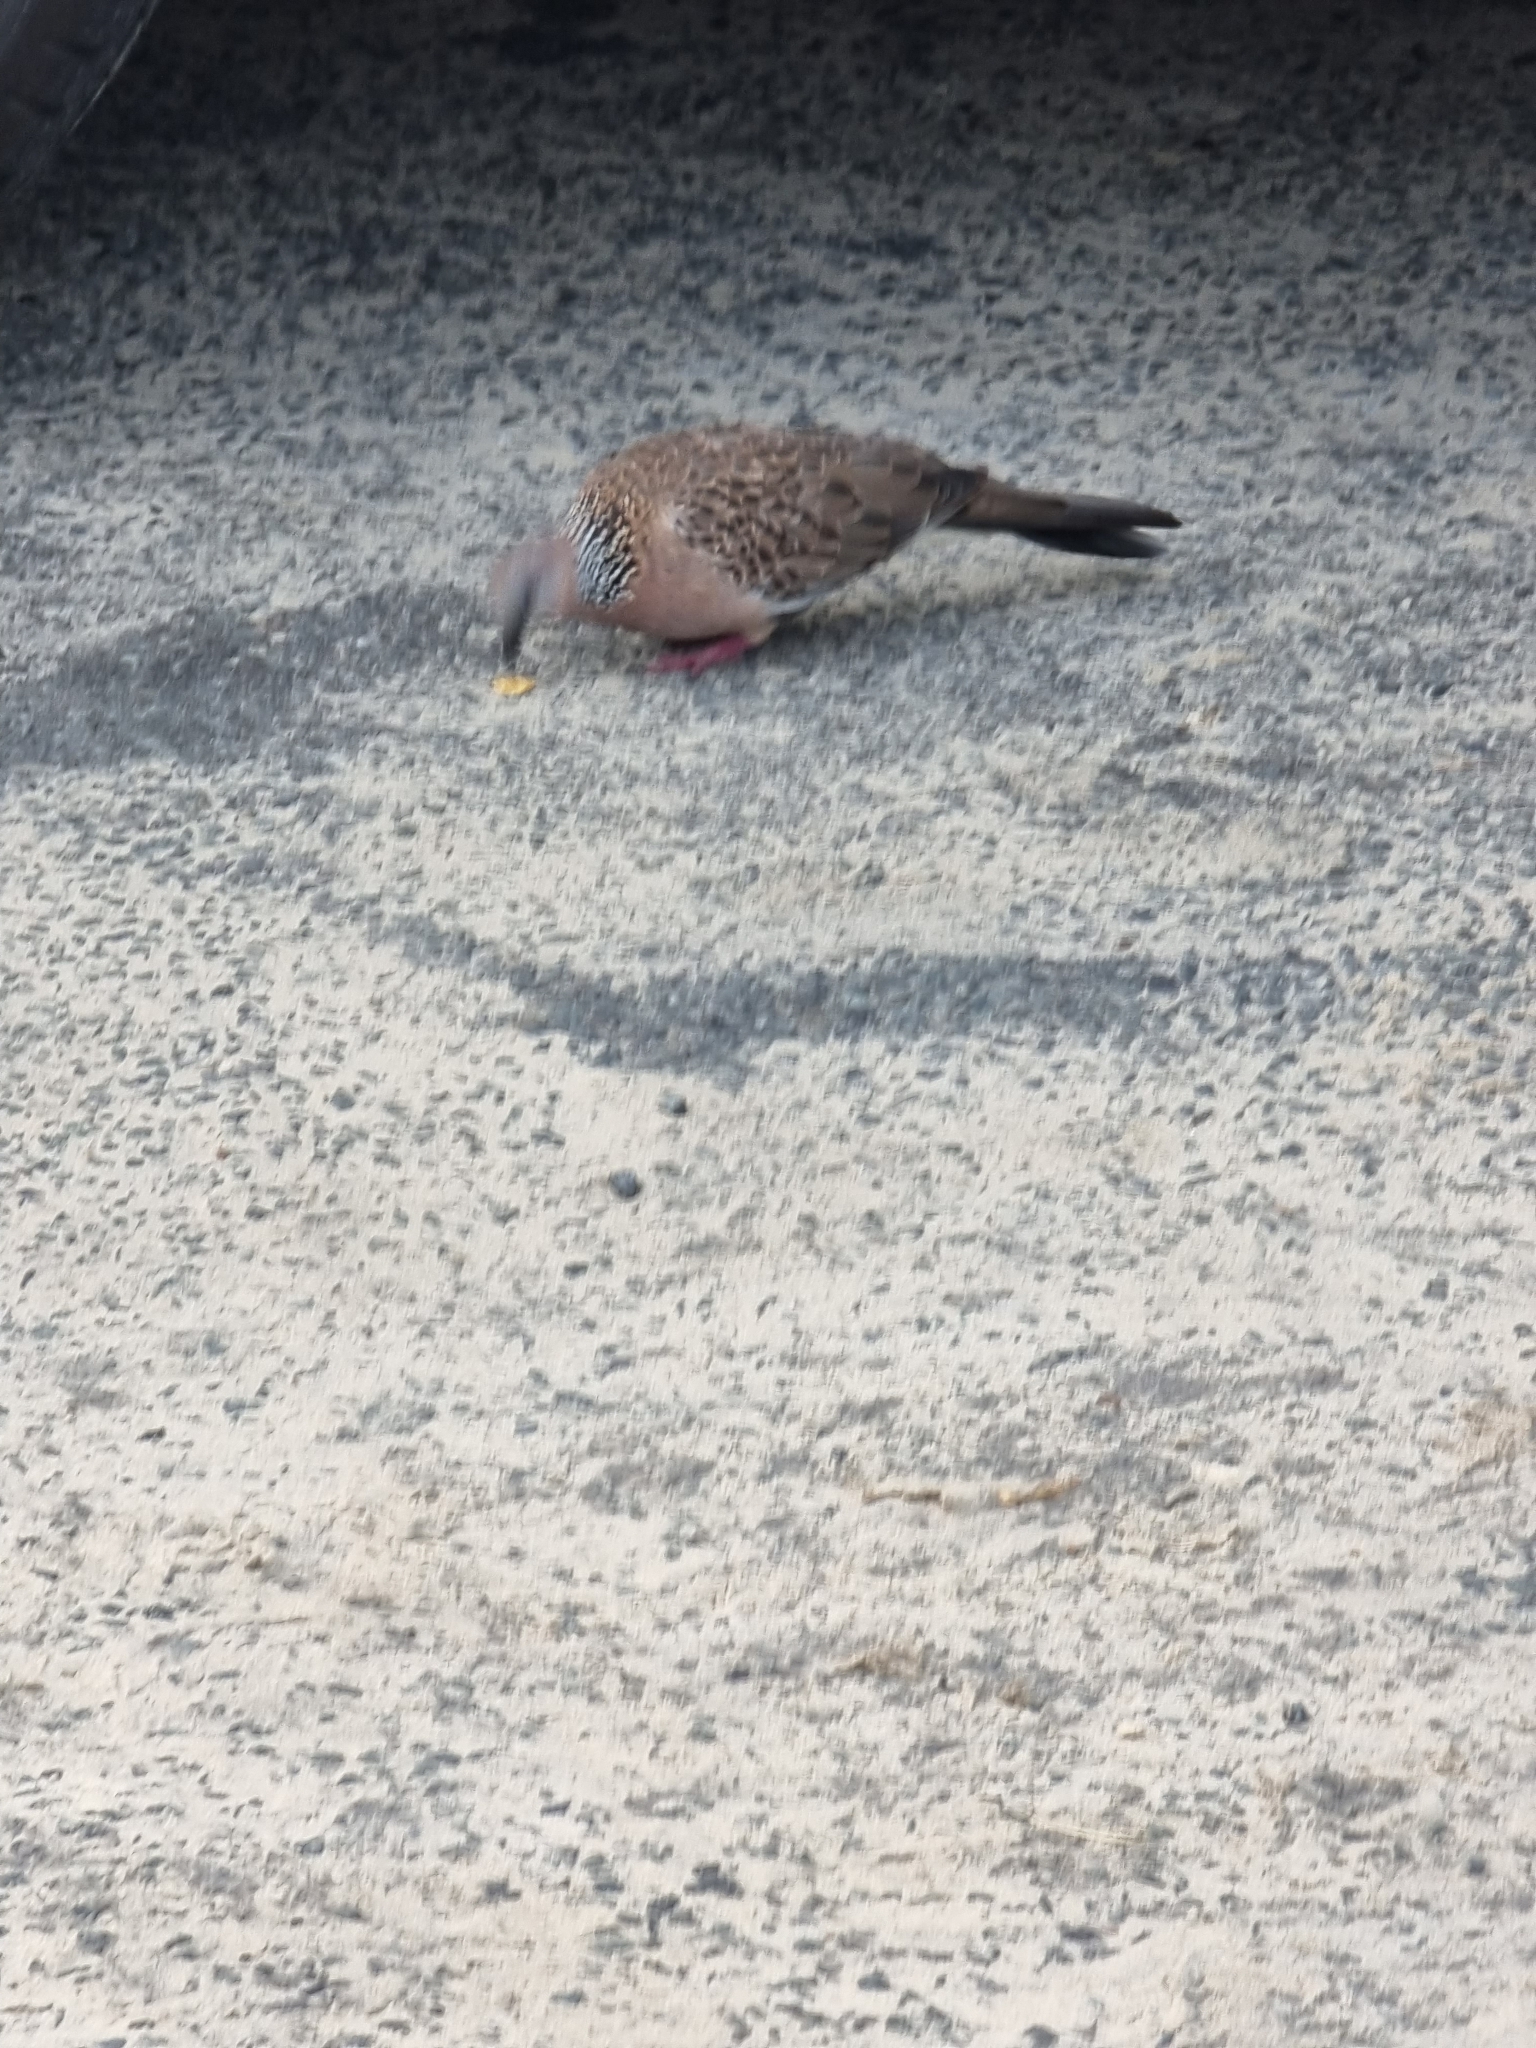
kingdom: Animalia
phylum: Chordata
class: Aves
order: Columbiformes
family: Columbidae
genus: Spilopelia
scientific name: Spilopelia chinensis
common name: Spotted dove
